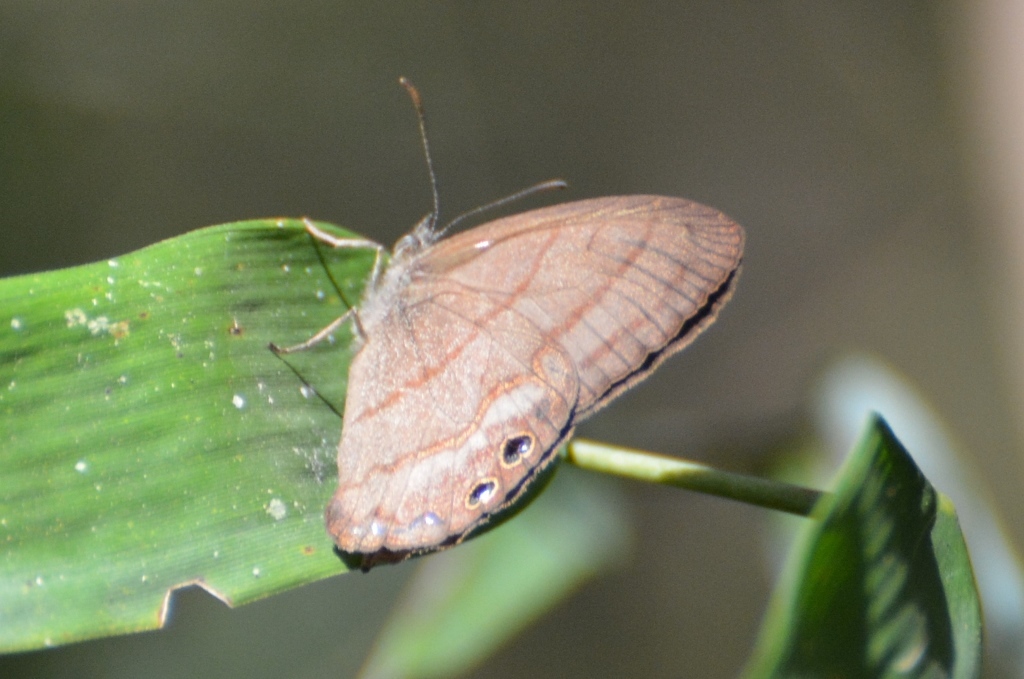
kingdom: Animalia
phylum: Arthropoda
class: Insecta
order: Lepidoptera
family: Nymphalidae
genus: Euptychia
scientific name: Euptychia
